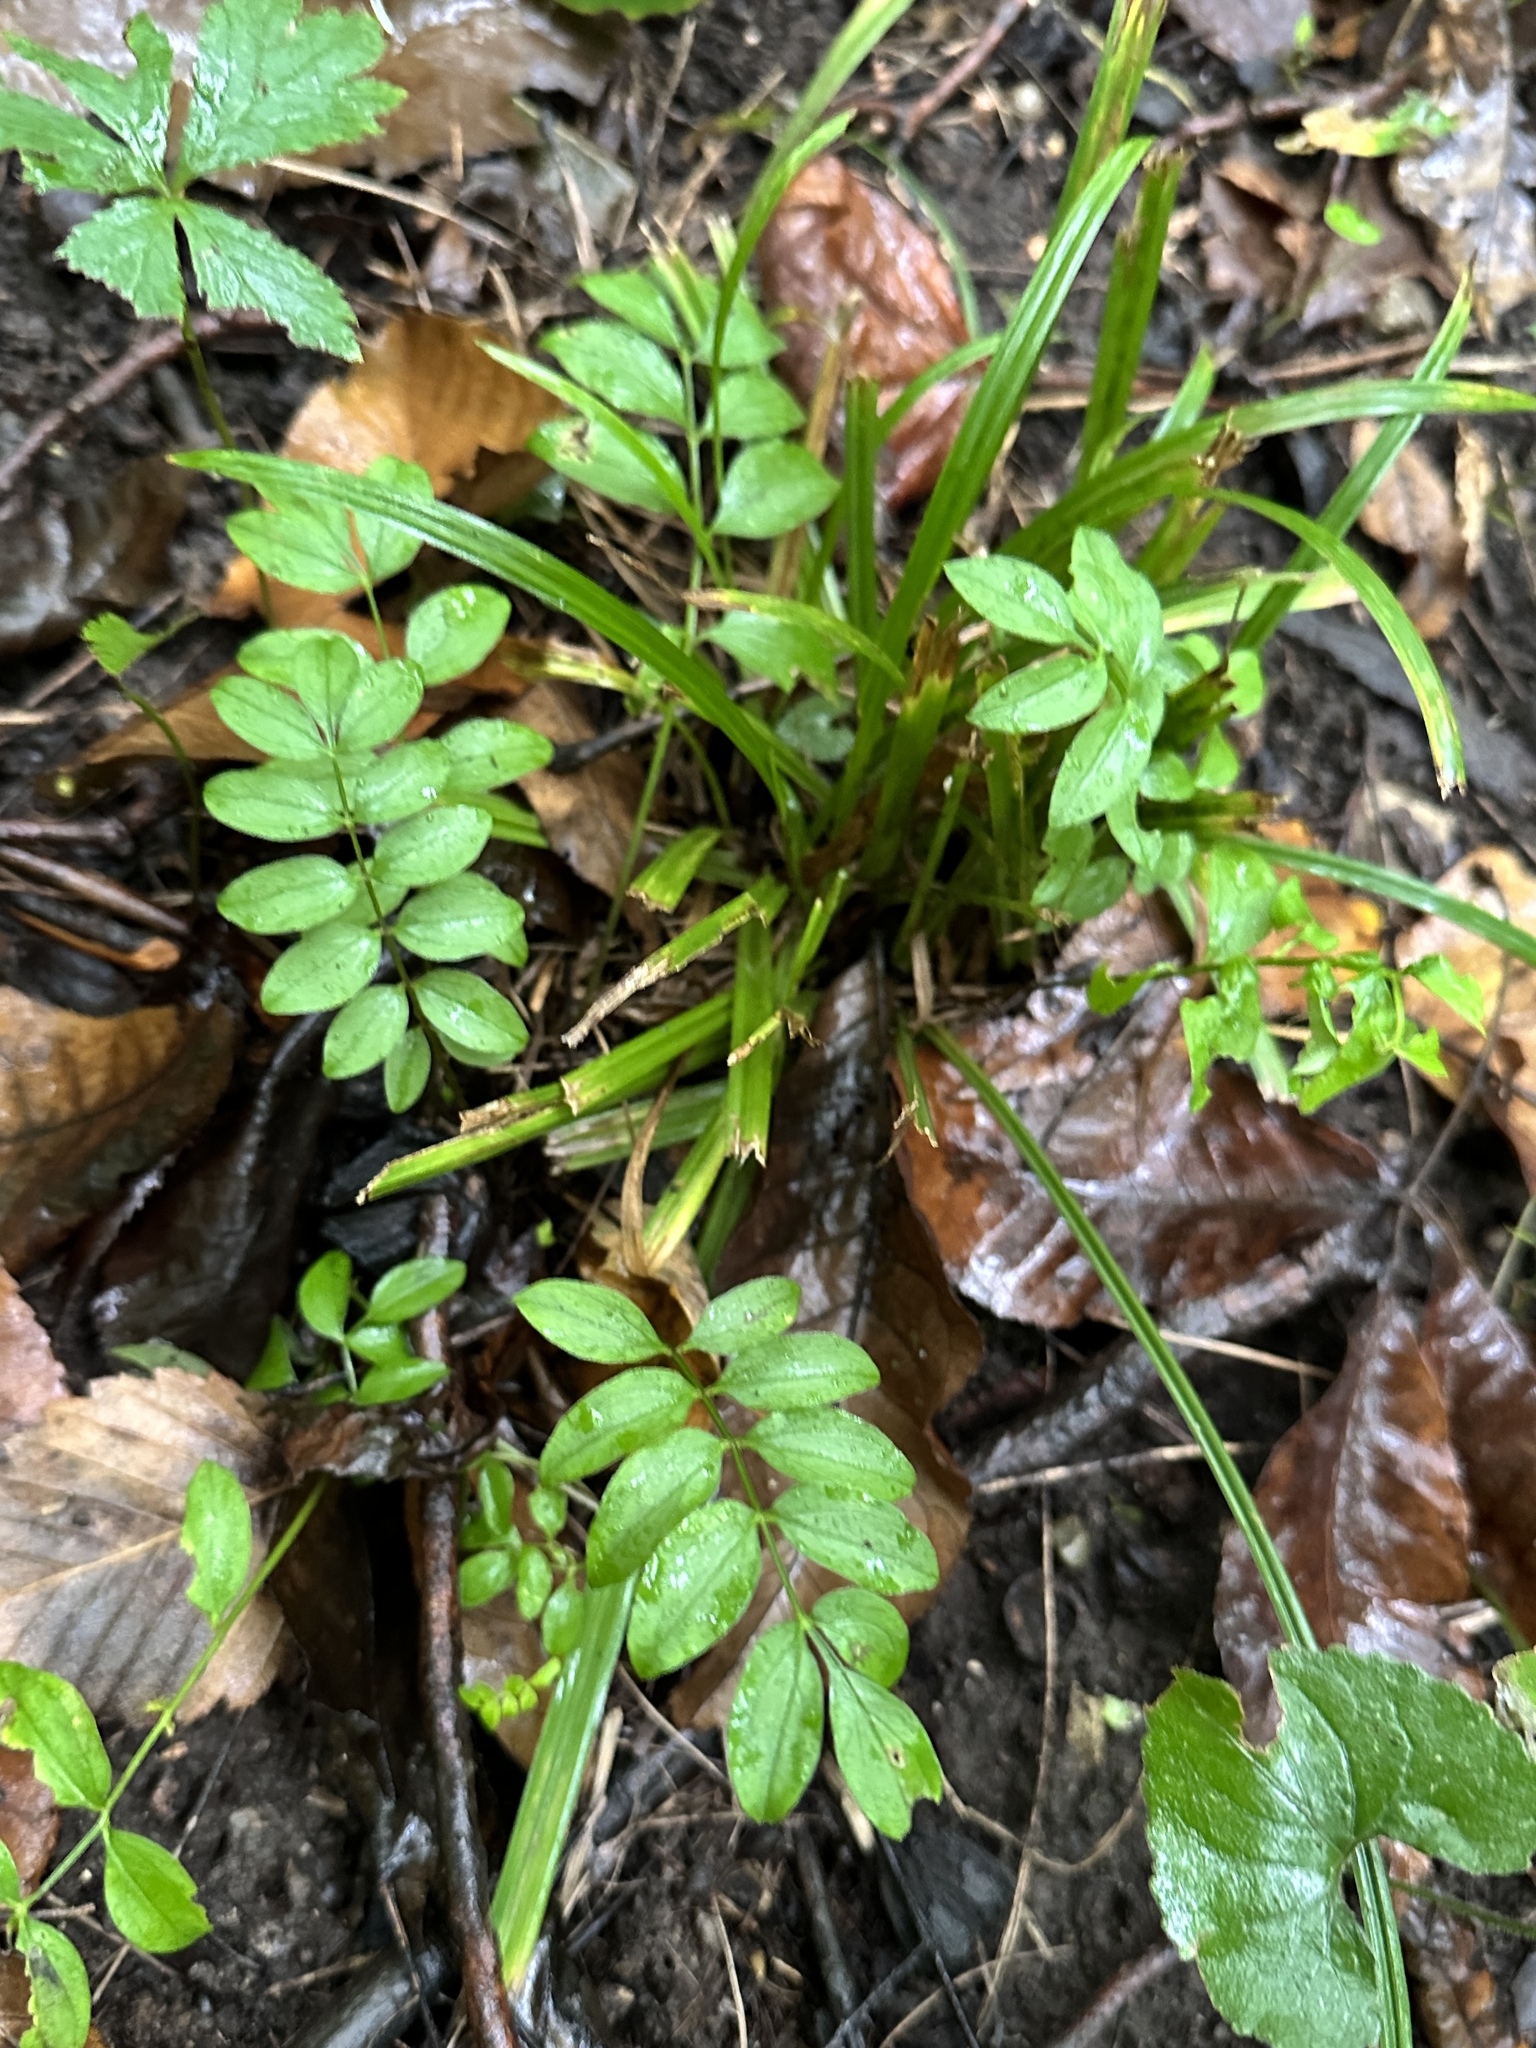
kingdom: Plantae
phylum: Tracheophyta
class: Magnoliopsida
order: Ericales
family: Polemoniaceae
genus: Polemonium
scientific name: Polemonium reptans
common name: Creeping jacob's-ladder
